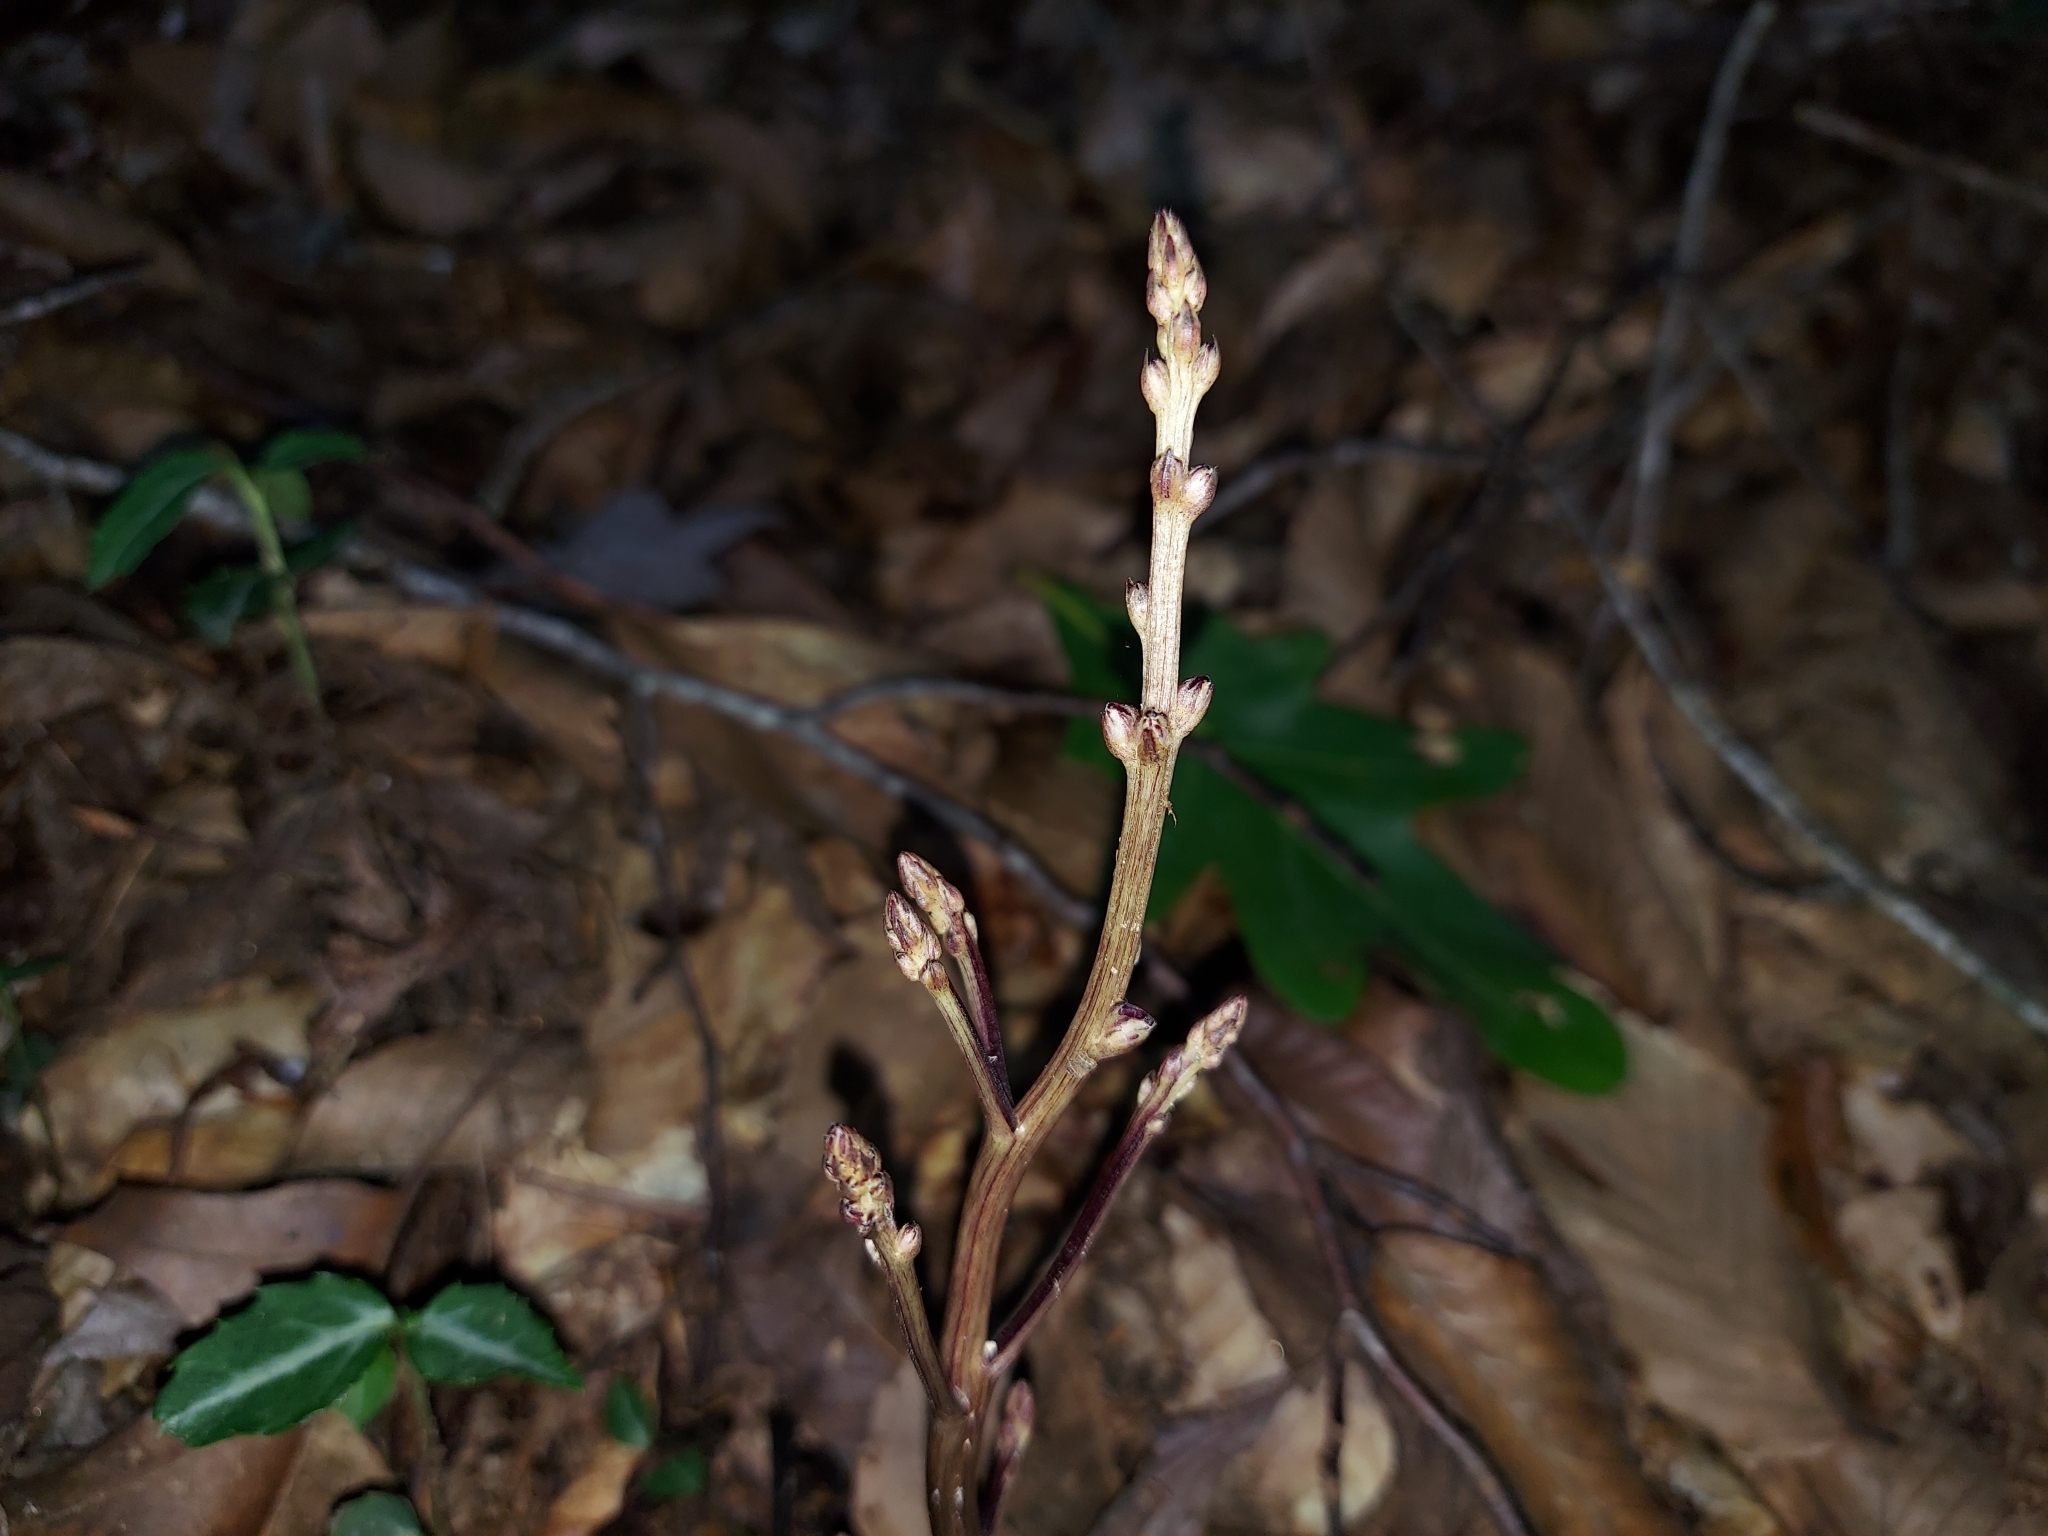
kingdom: Plantae
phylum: Tracheophyta
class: Magnoliopsida
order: Lamiales
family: Orobanchaceae
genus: Epifagus
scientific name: Epifagus virginiana
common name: Beechdrops
